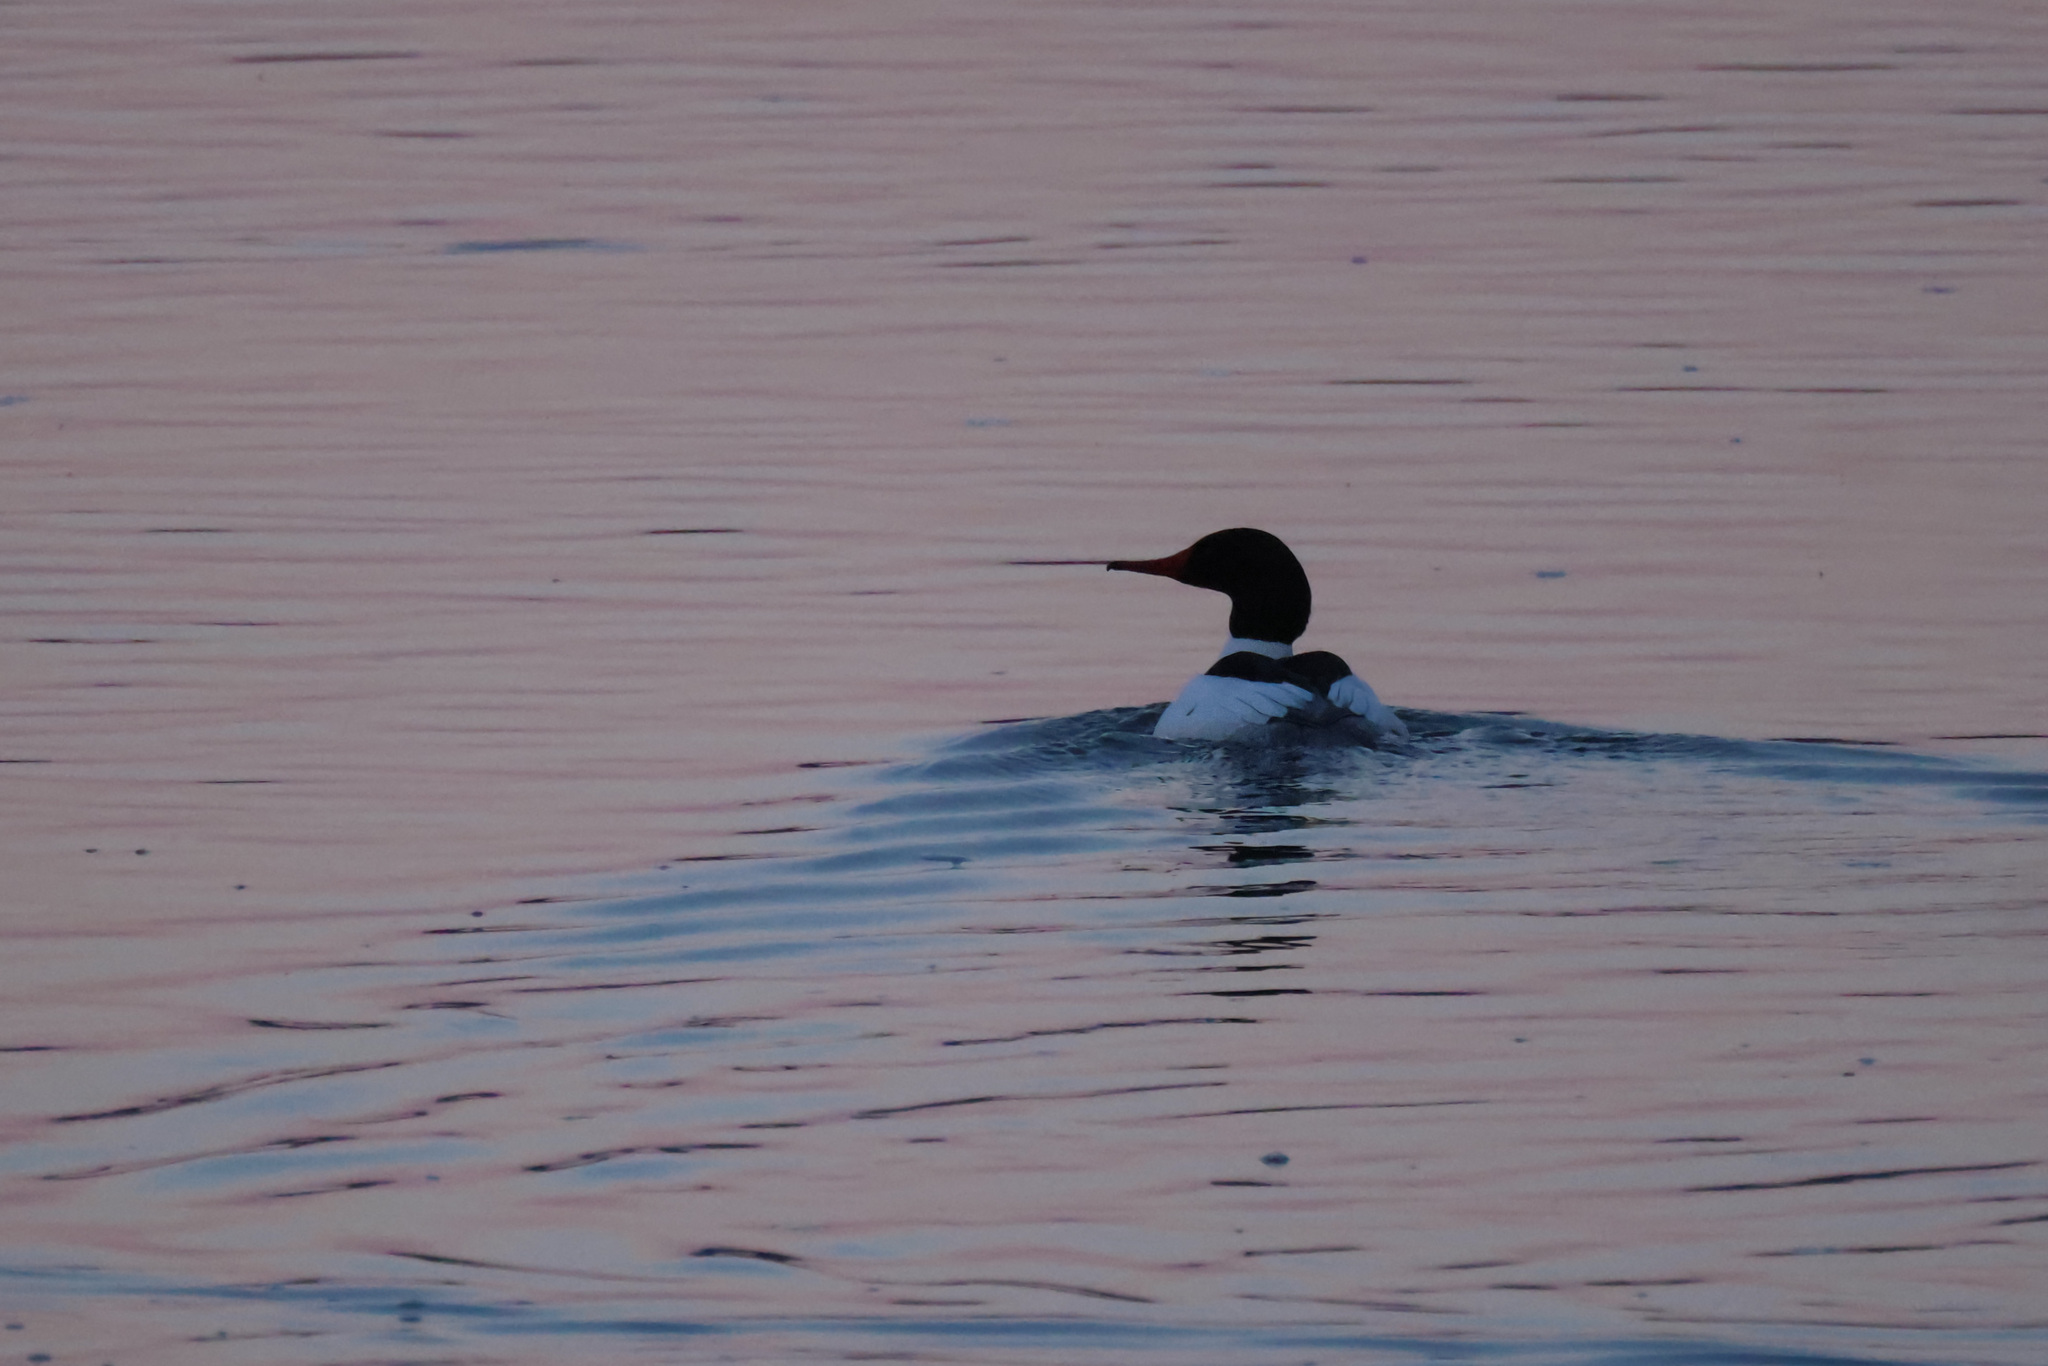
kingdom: Animalia
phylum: Chordata
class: Aves
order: Anseriformes
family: Anatidae
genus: Mergus
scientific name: Mergus merganser
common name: Common merganser
